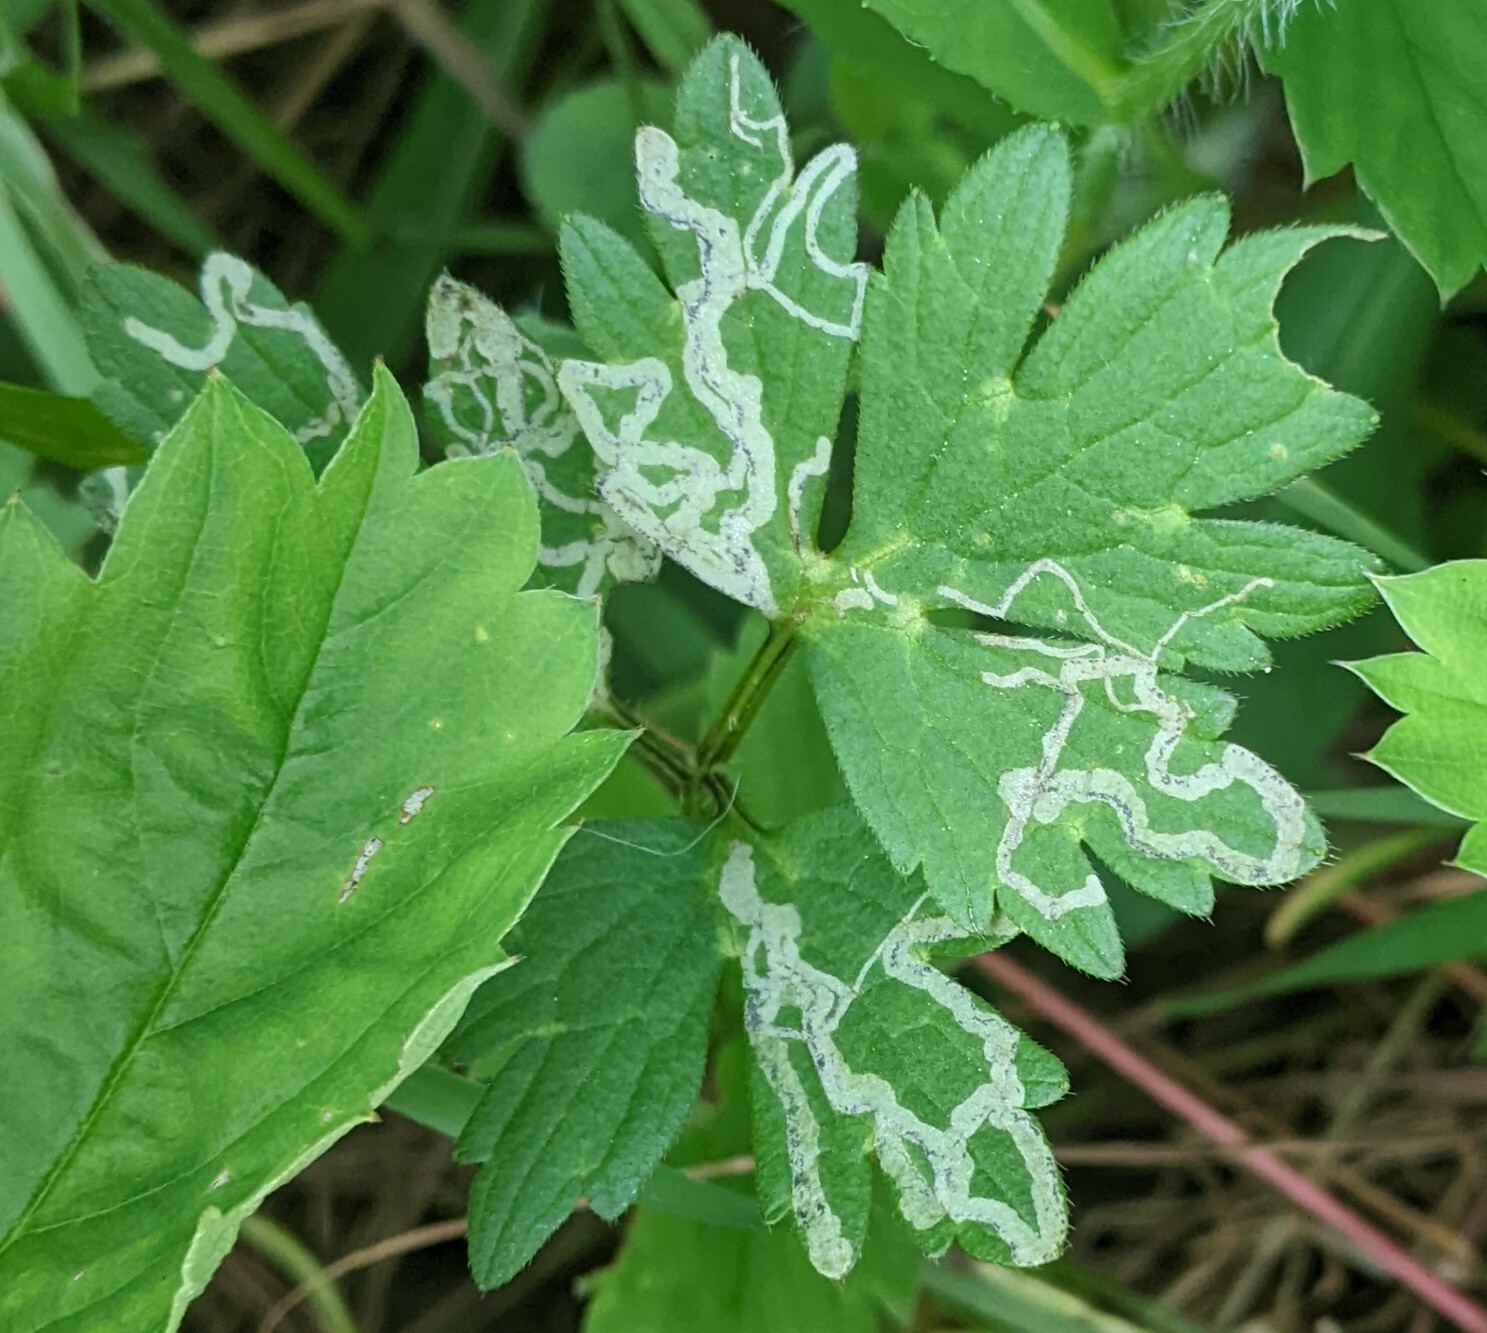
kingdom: Animalia
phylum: Arthropoda
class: Insecta
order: Diptera
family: Agromyzidae
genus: Phytomyza
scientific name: Phytomyza ranunculi
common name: Leaf-miner fly
